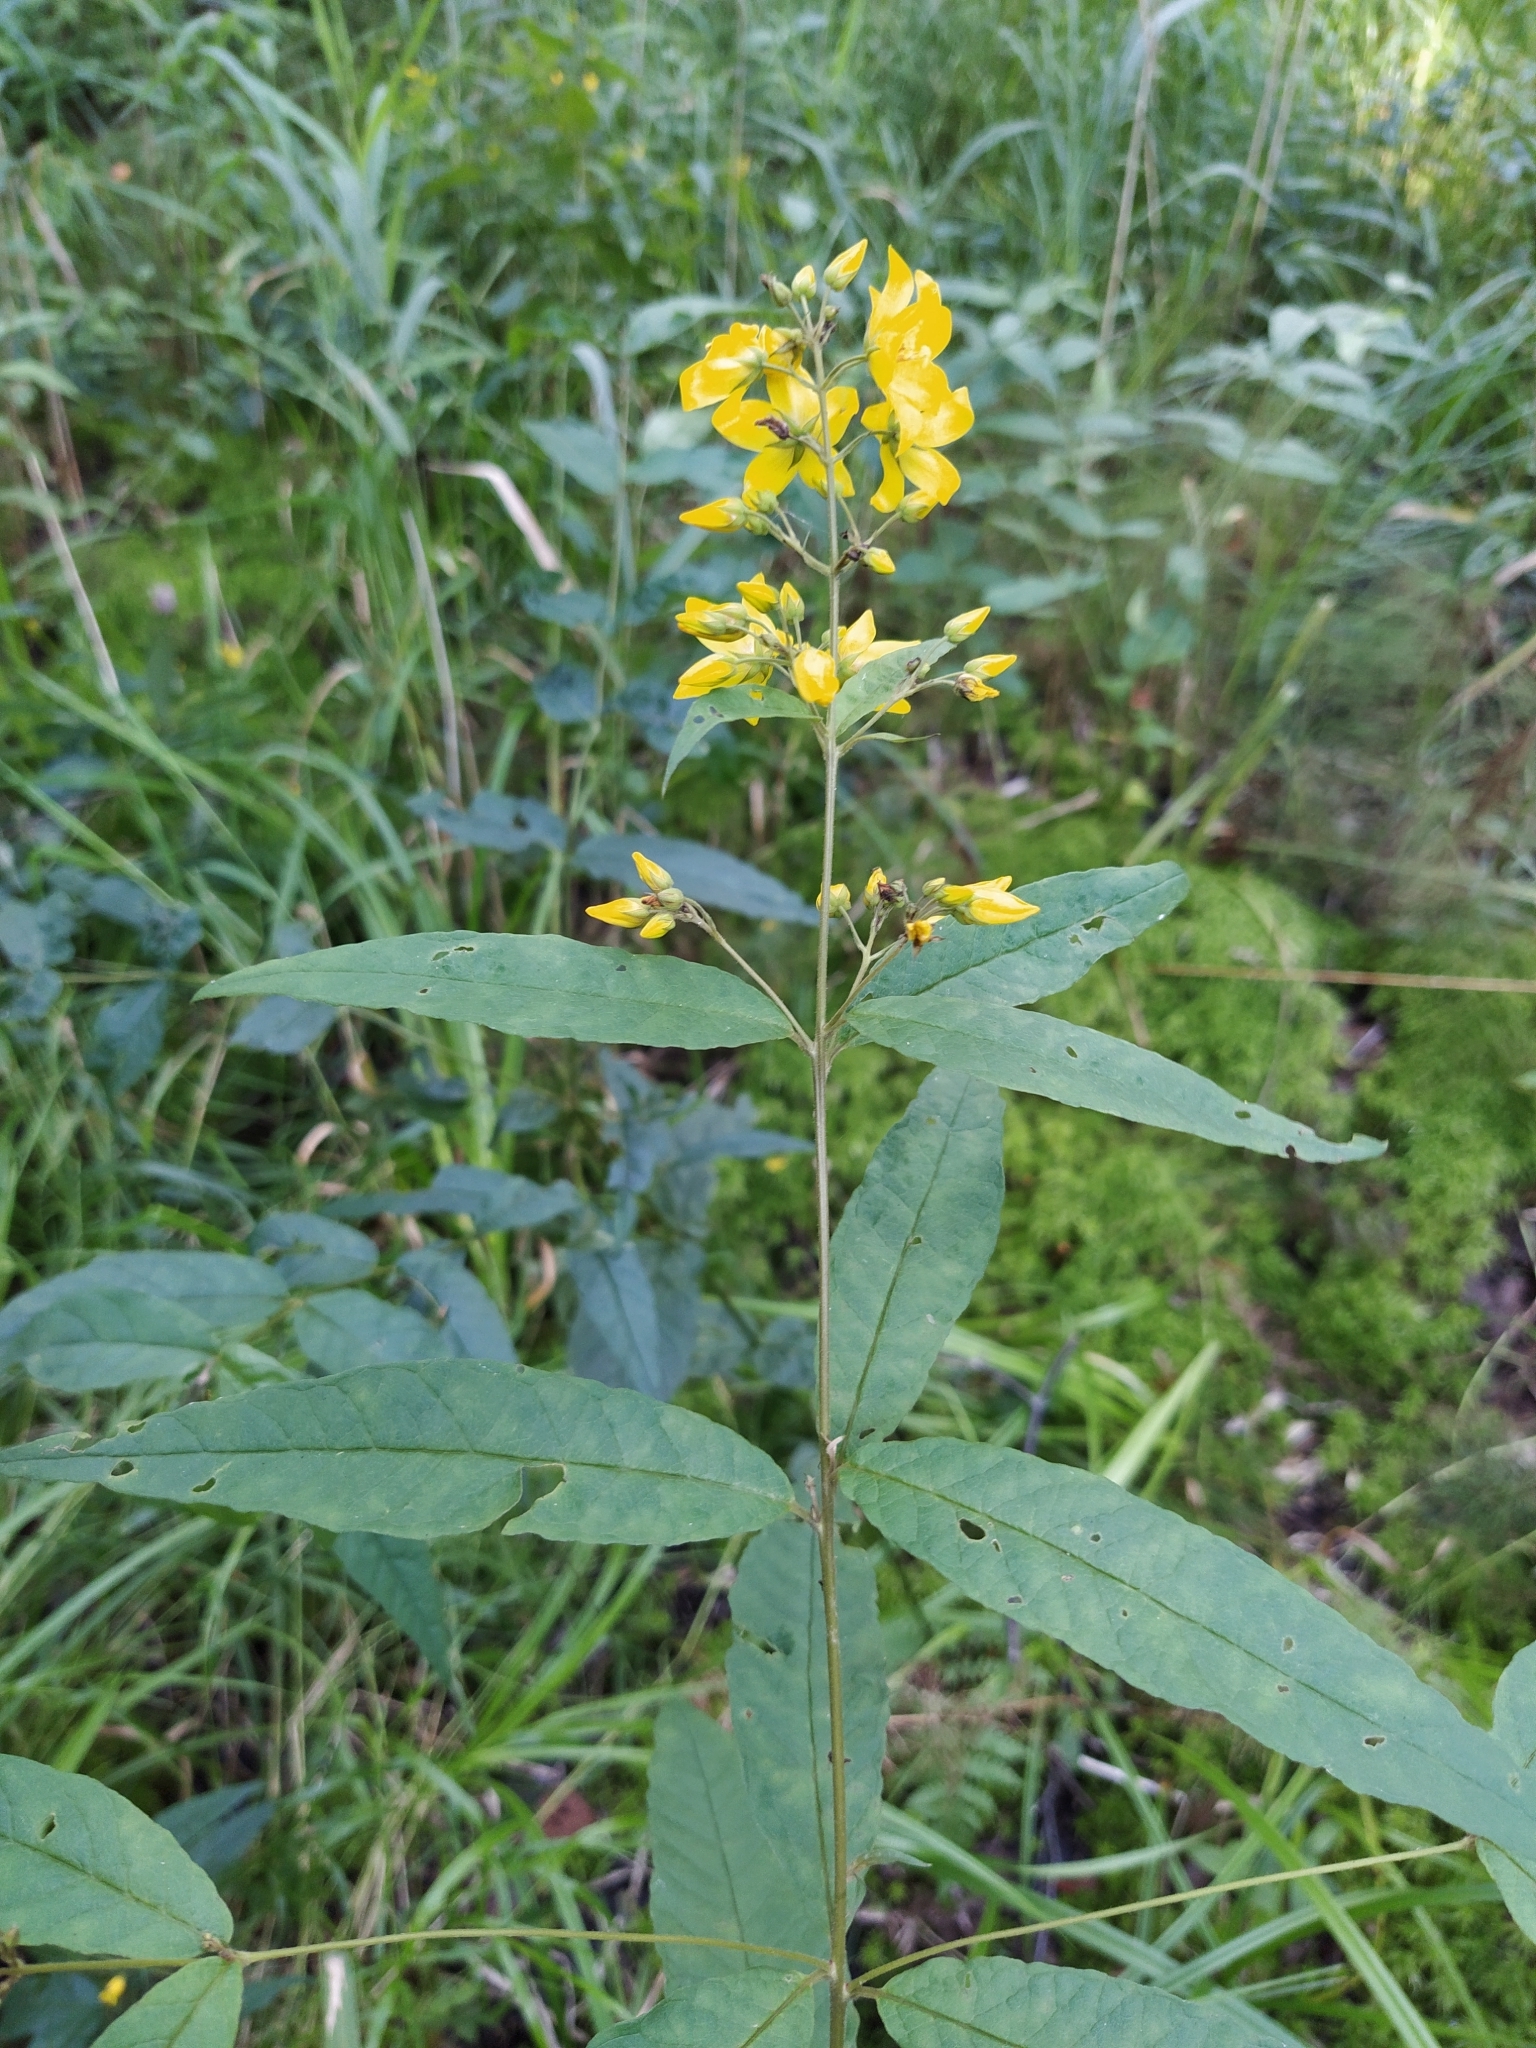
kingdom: Plantae
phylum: Tracheophyta
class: Magnoliopsida
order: Ericales
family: Primulaceae
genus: Lysimachia
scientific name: Lysimachia vulgaris
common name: Yellow loosestrife
